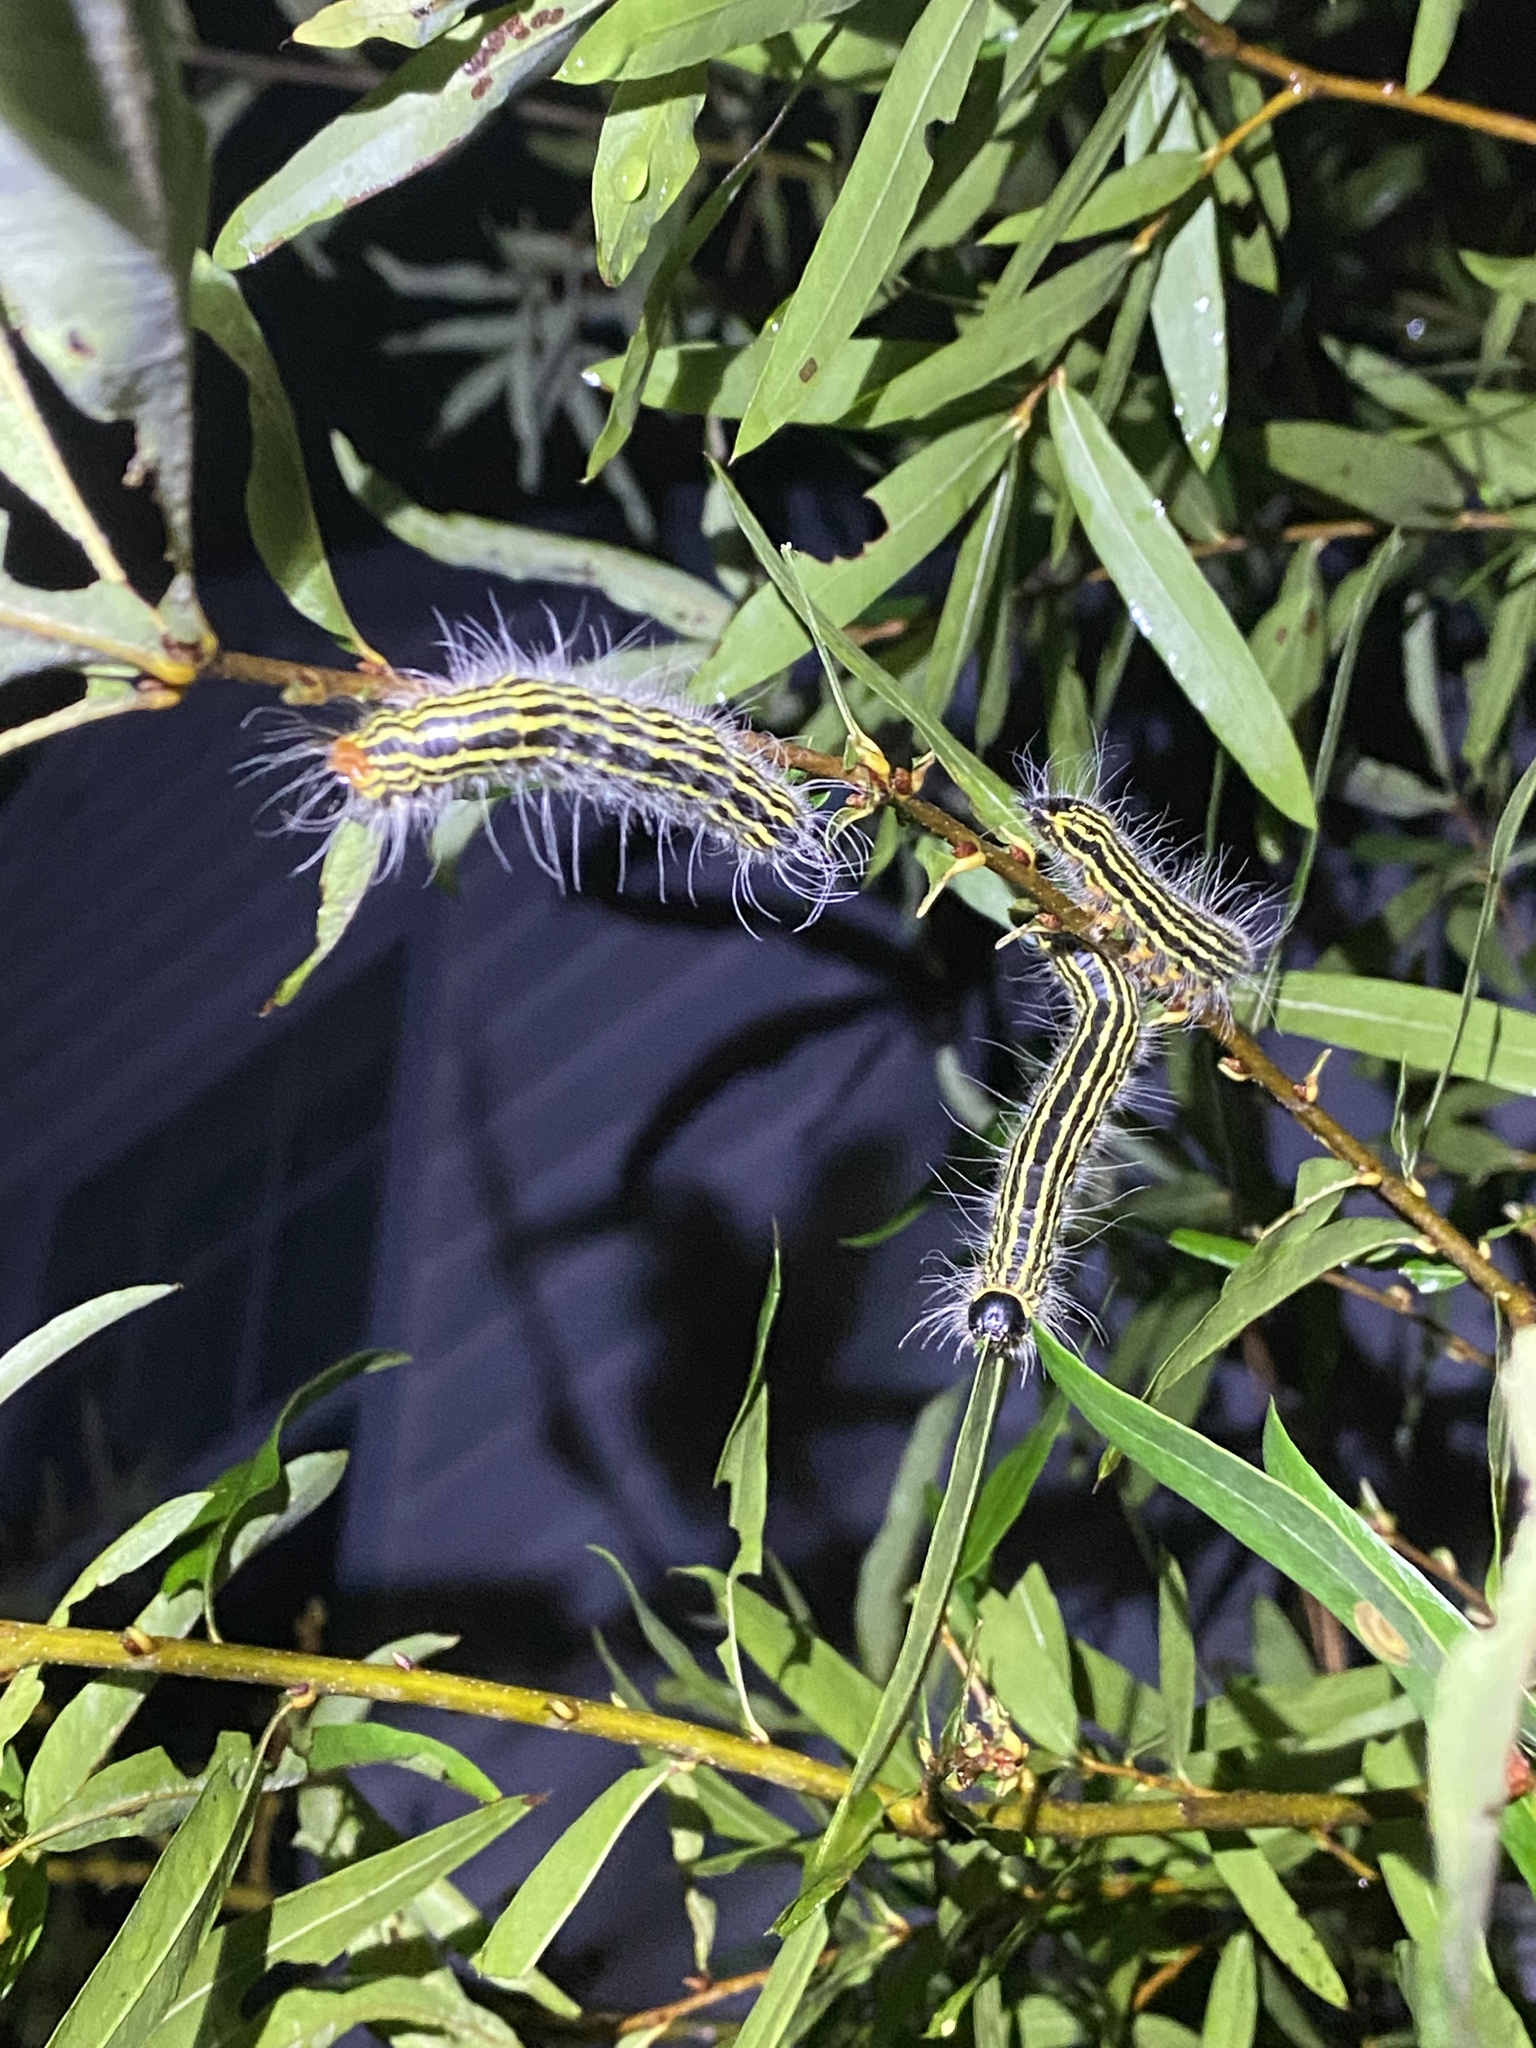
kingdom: Animalia
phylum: Arthropoda
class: Insecta
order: Lepidoptera
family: Notodontidae
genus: Datana
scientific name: Datana ministra
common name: Yellow-necked caterpillar moth
